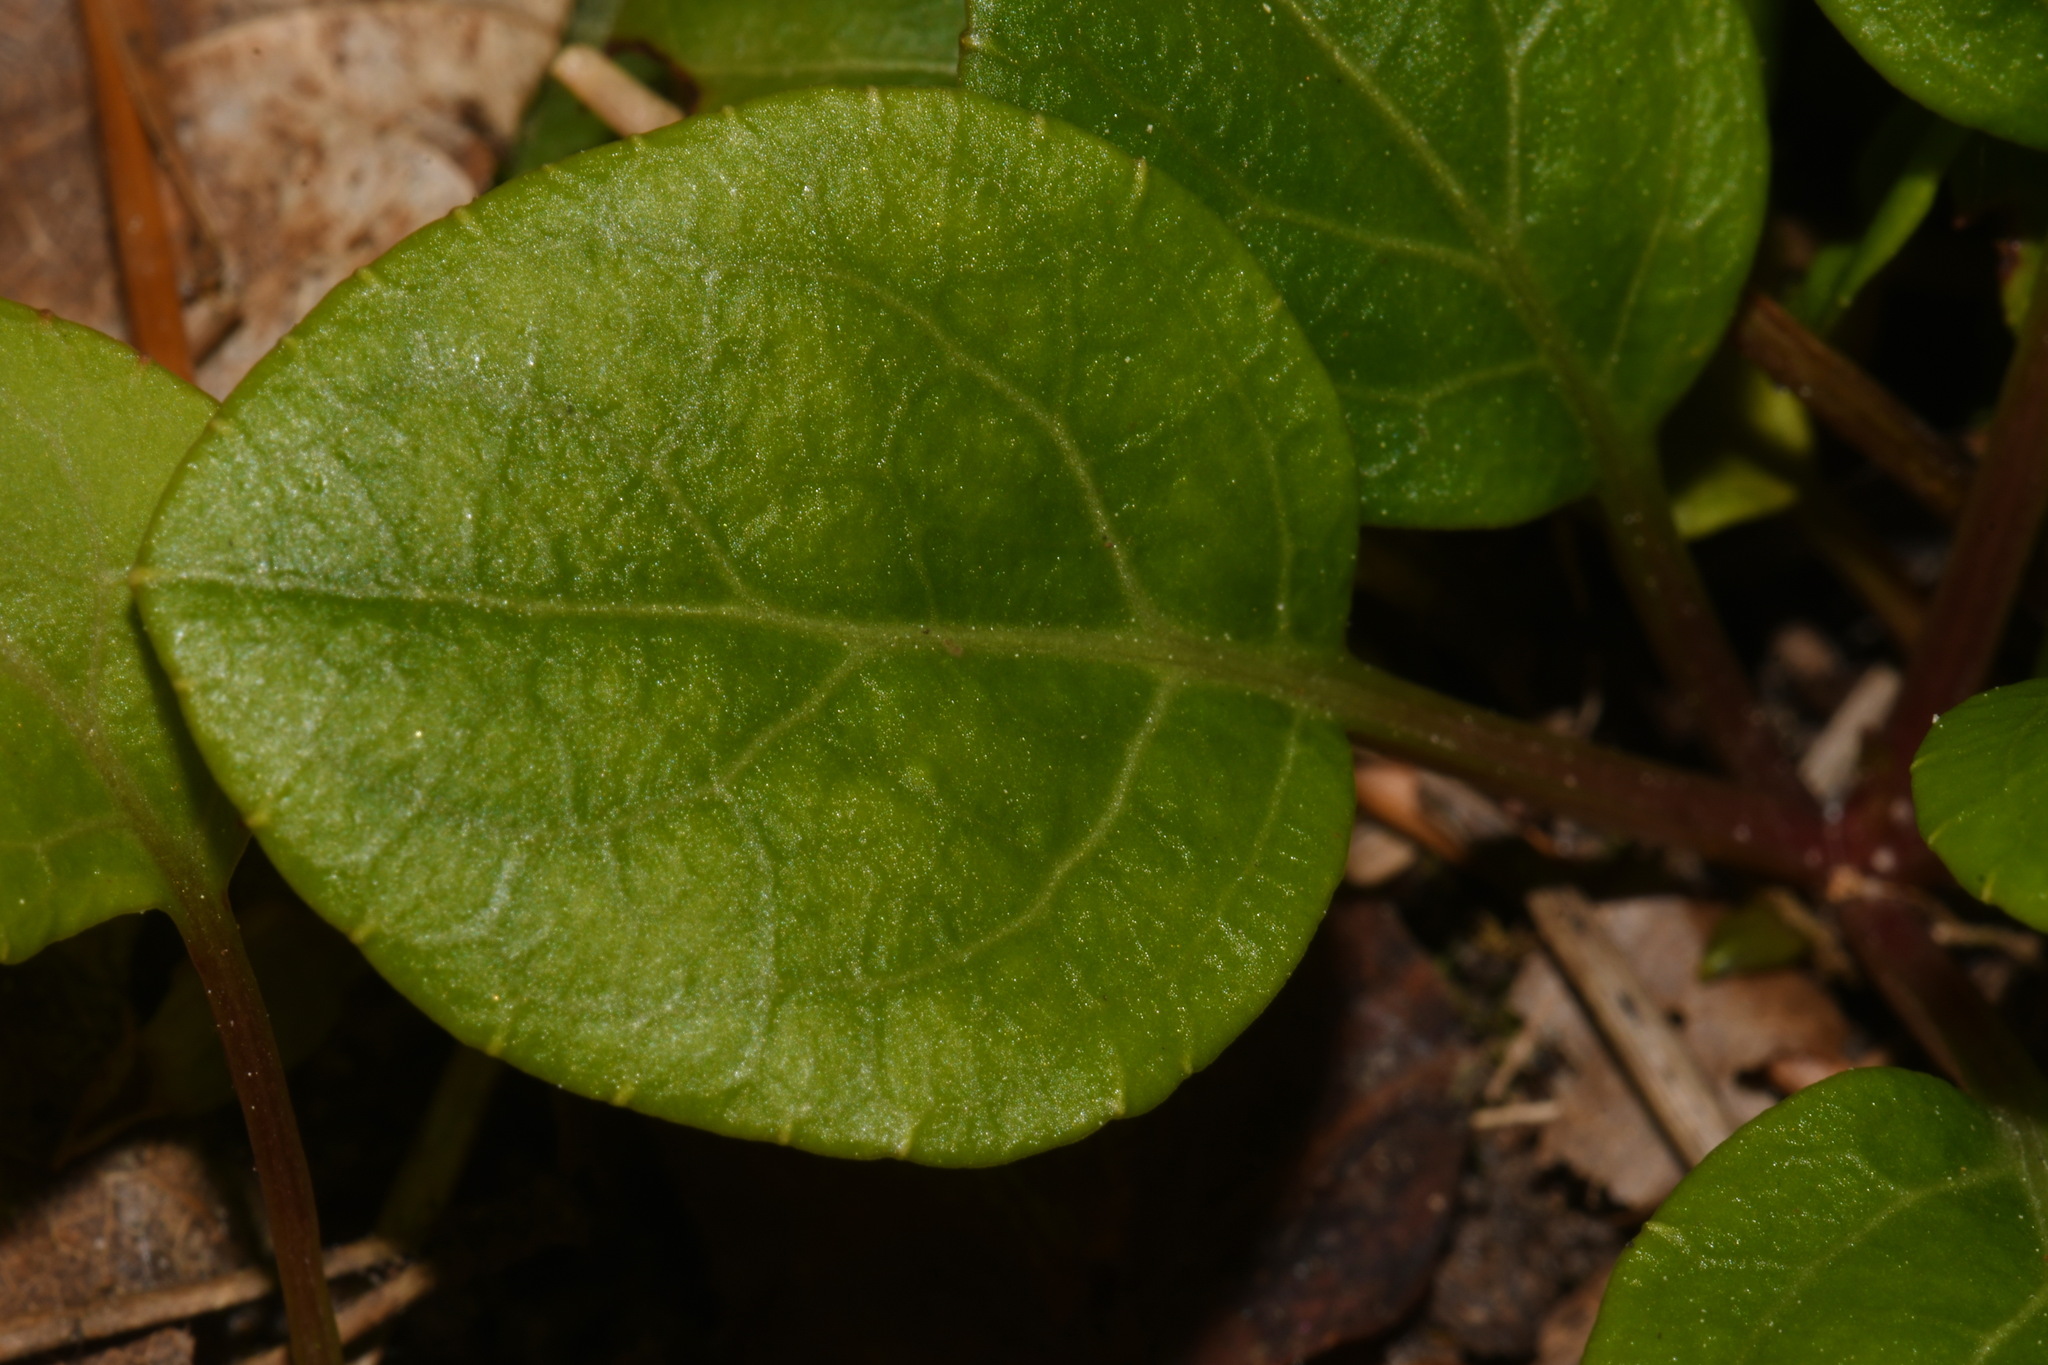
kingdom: Plantae
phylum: Tracheophyta
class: Magnoliopsida
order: Ericales
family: Ericaceae
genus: Pyrola
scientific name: Pyrola chlorantha
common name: Green wintergreen
